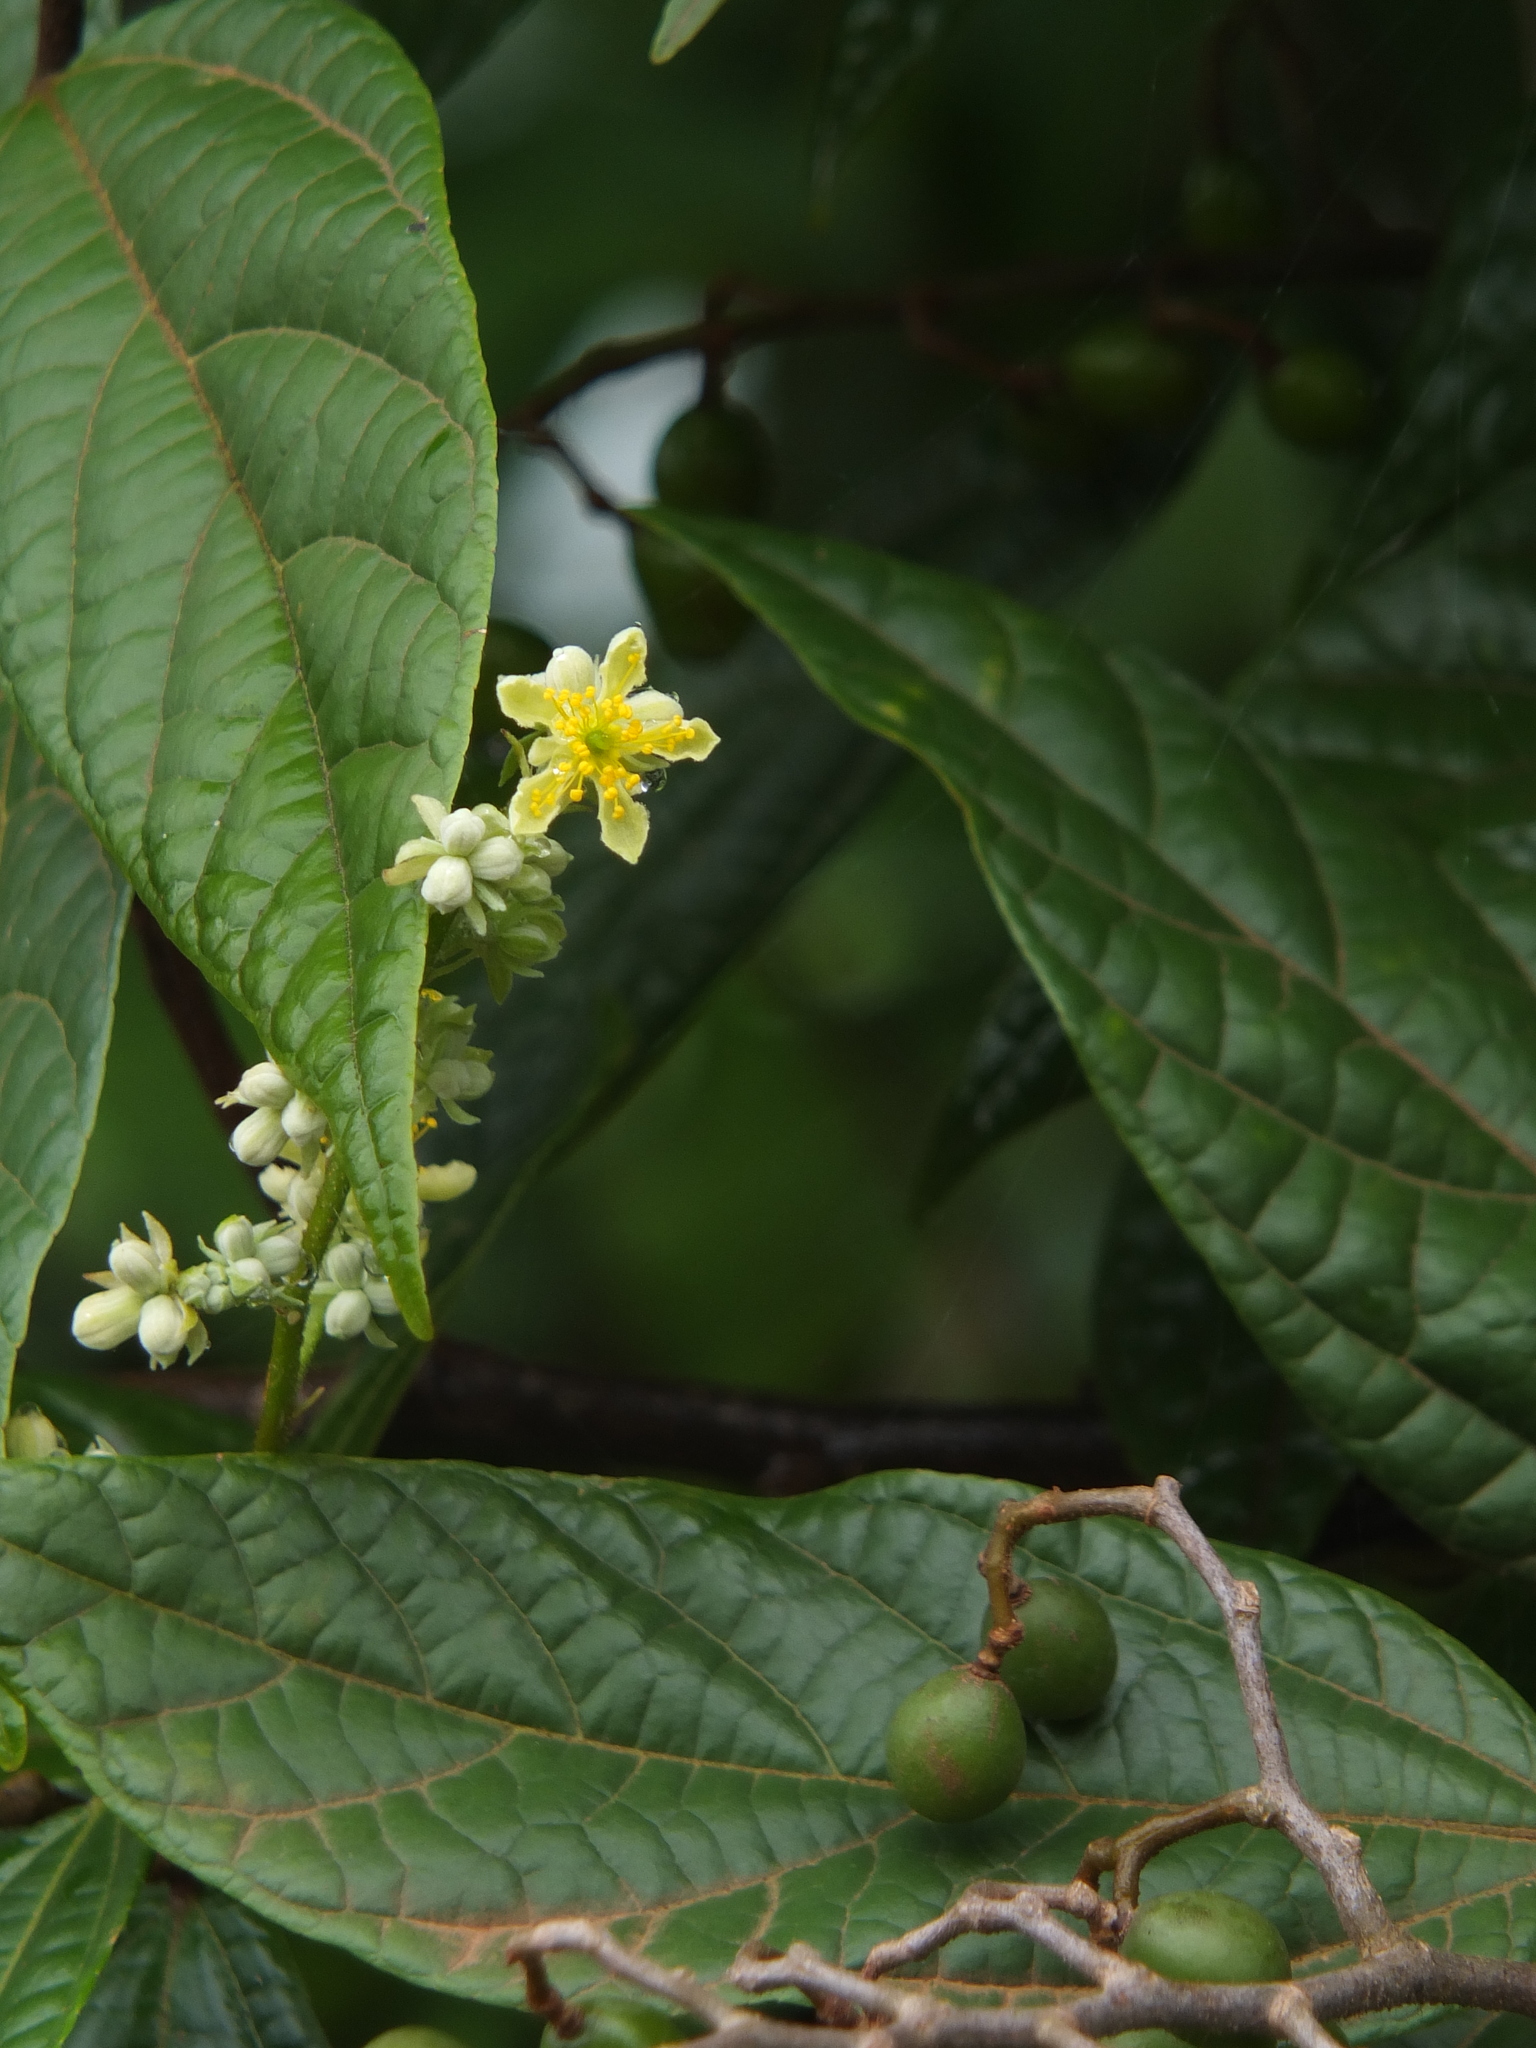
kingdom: Plantae
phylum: Tracheophyta
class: Magnoliopsida
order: Malvales
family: Malvaceae
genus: Microcos
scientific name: Microcos paniculata
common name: Microcos
